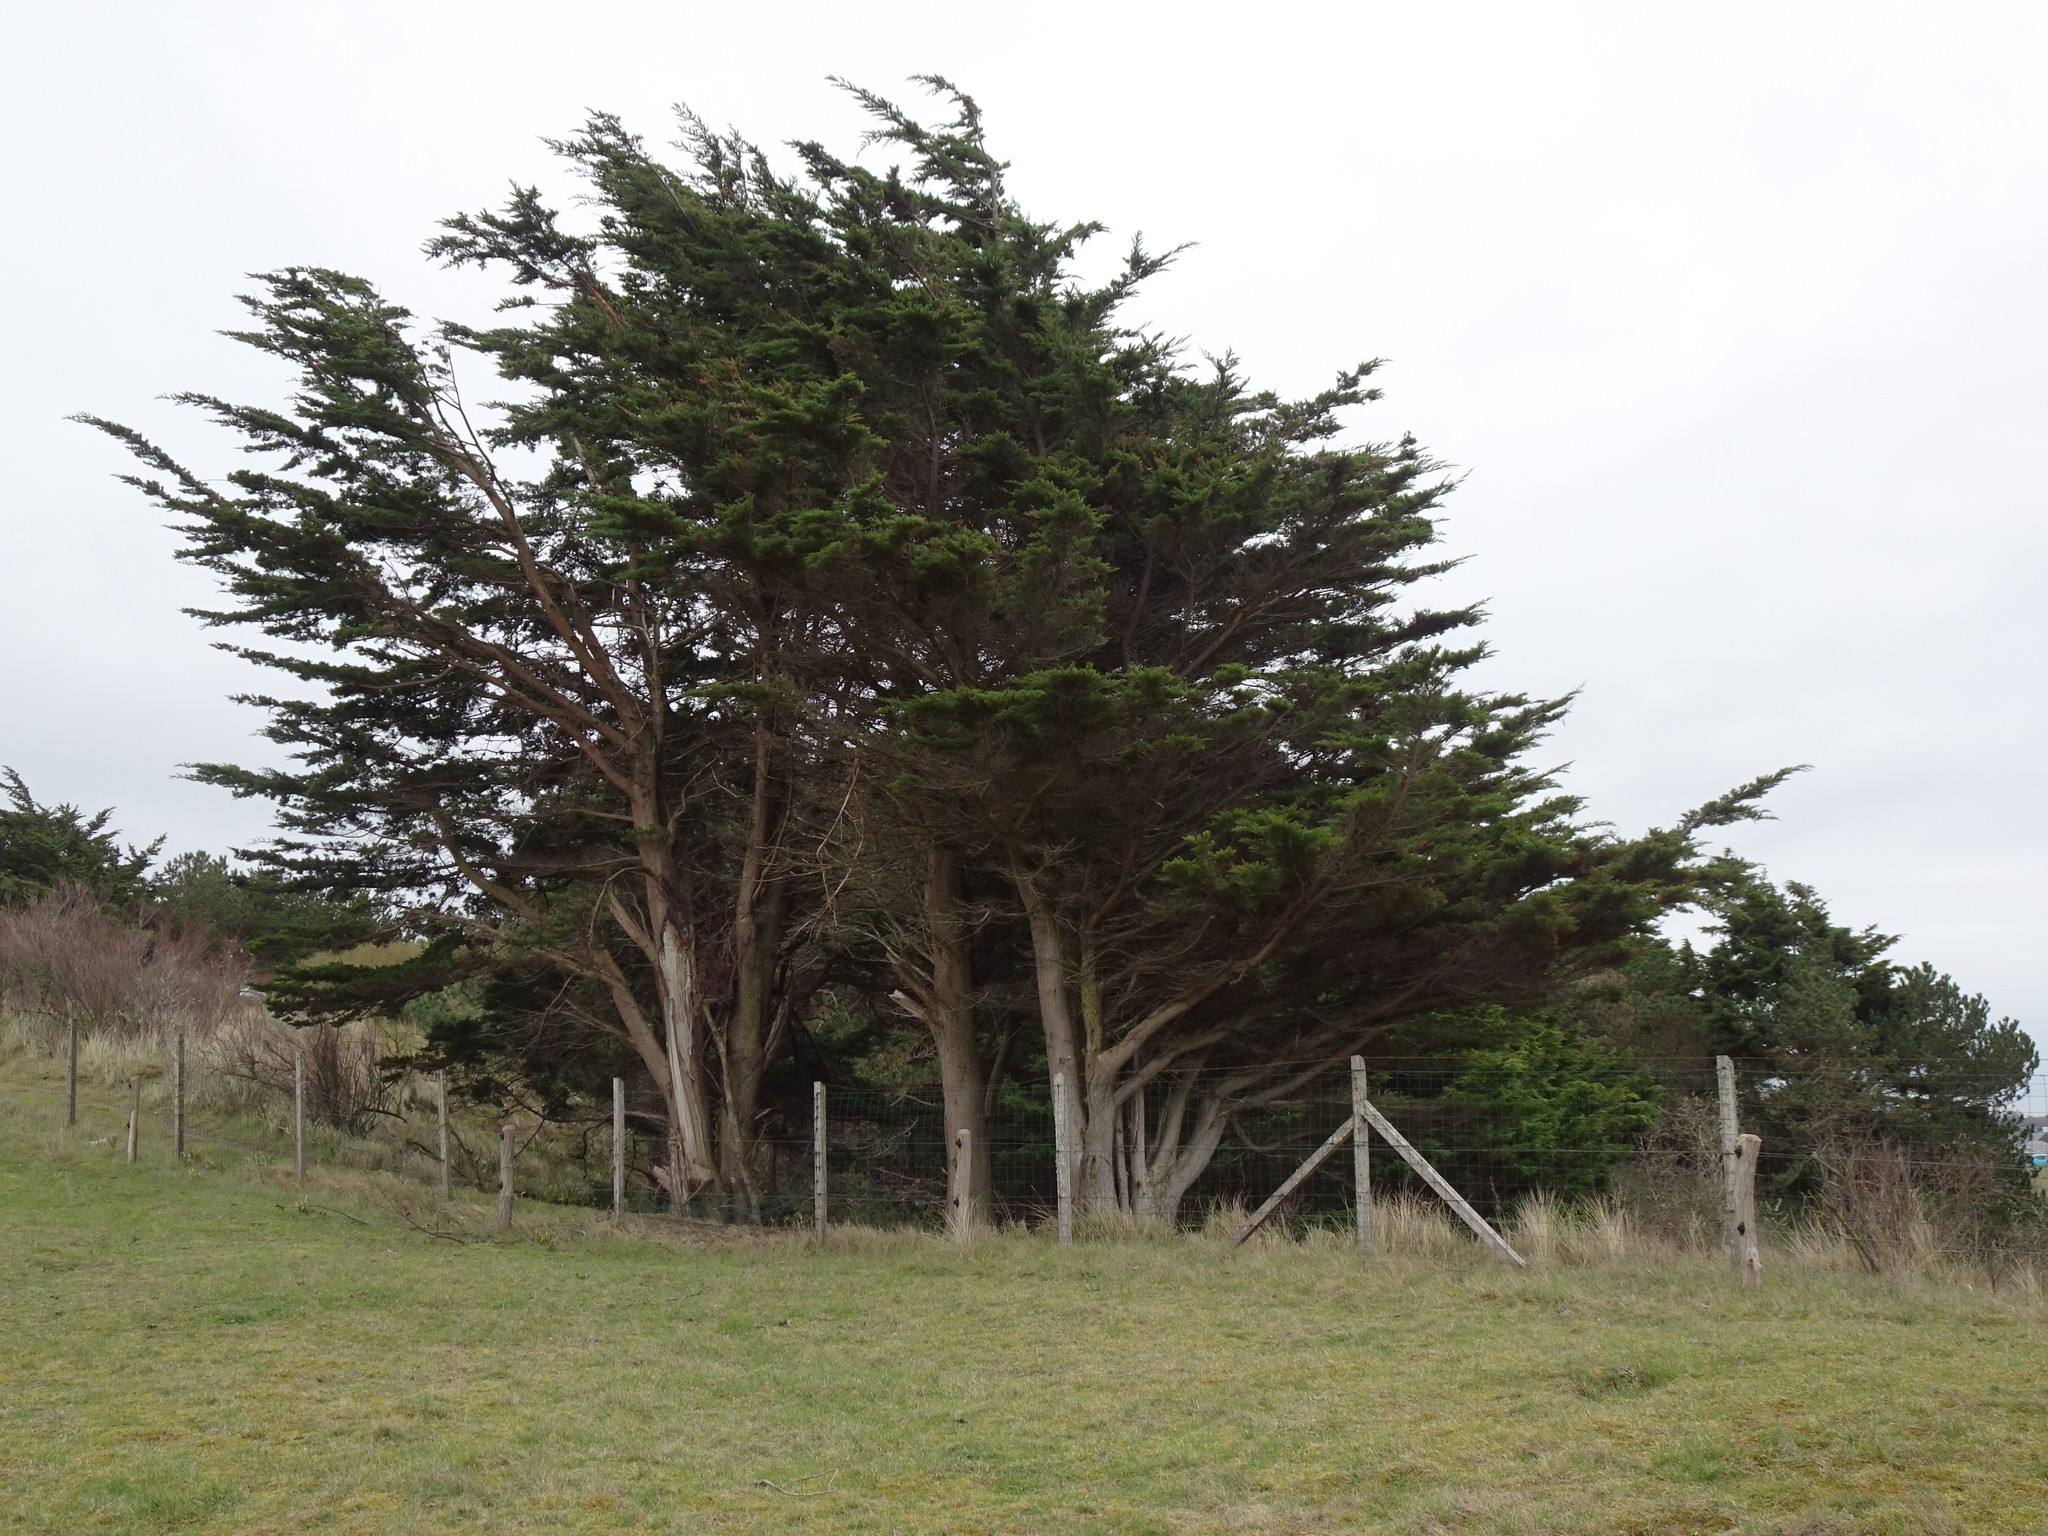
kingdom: Plantae
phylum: Tracheophyta
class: Pinopsida
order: Pinales
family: Cupressaceae
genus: Cupressus
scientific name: Cupressus macrocarpa
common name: Monterey cypress
